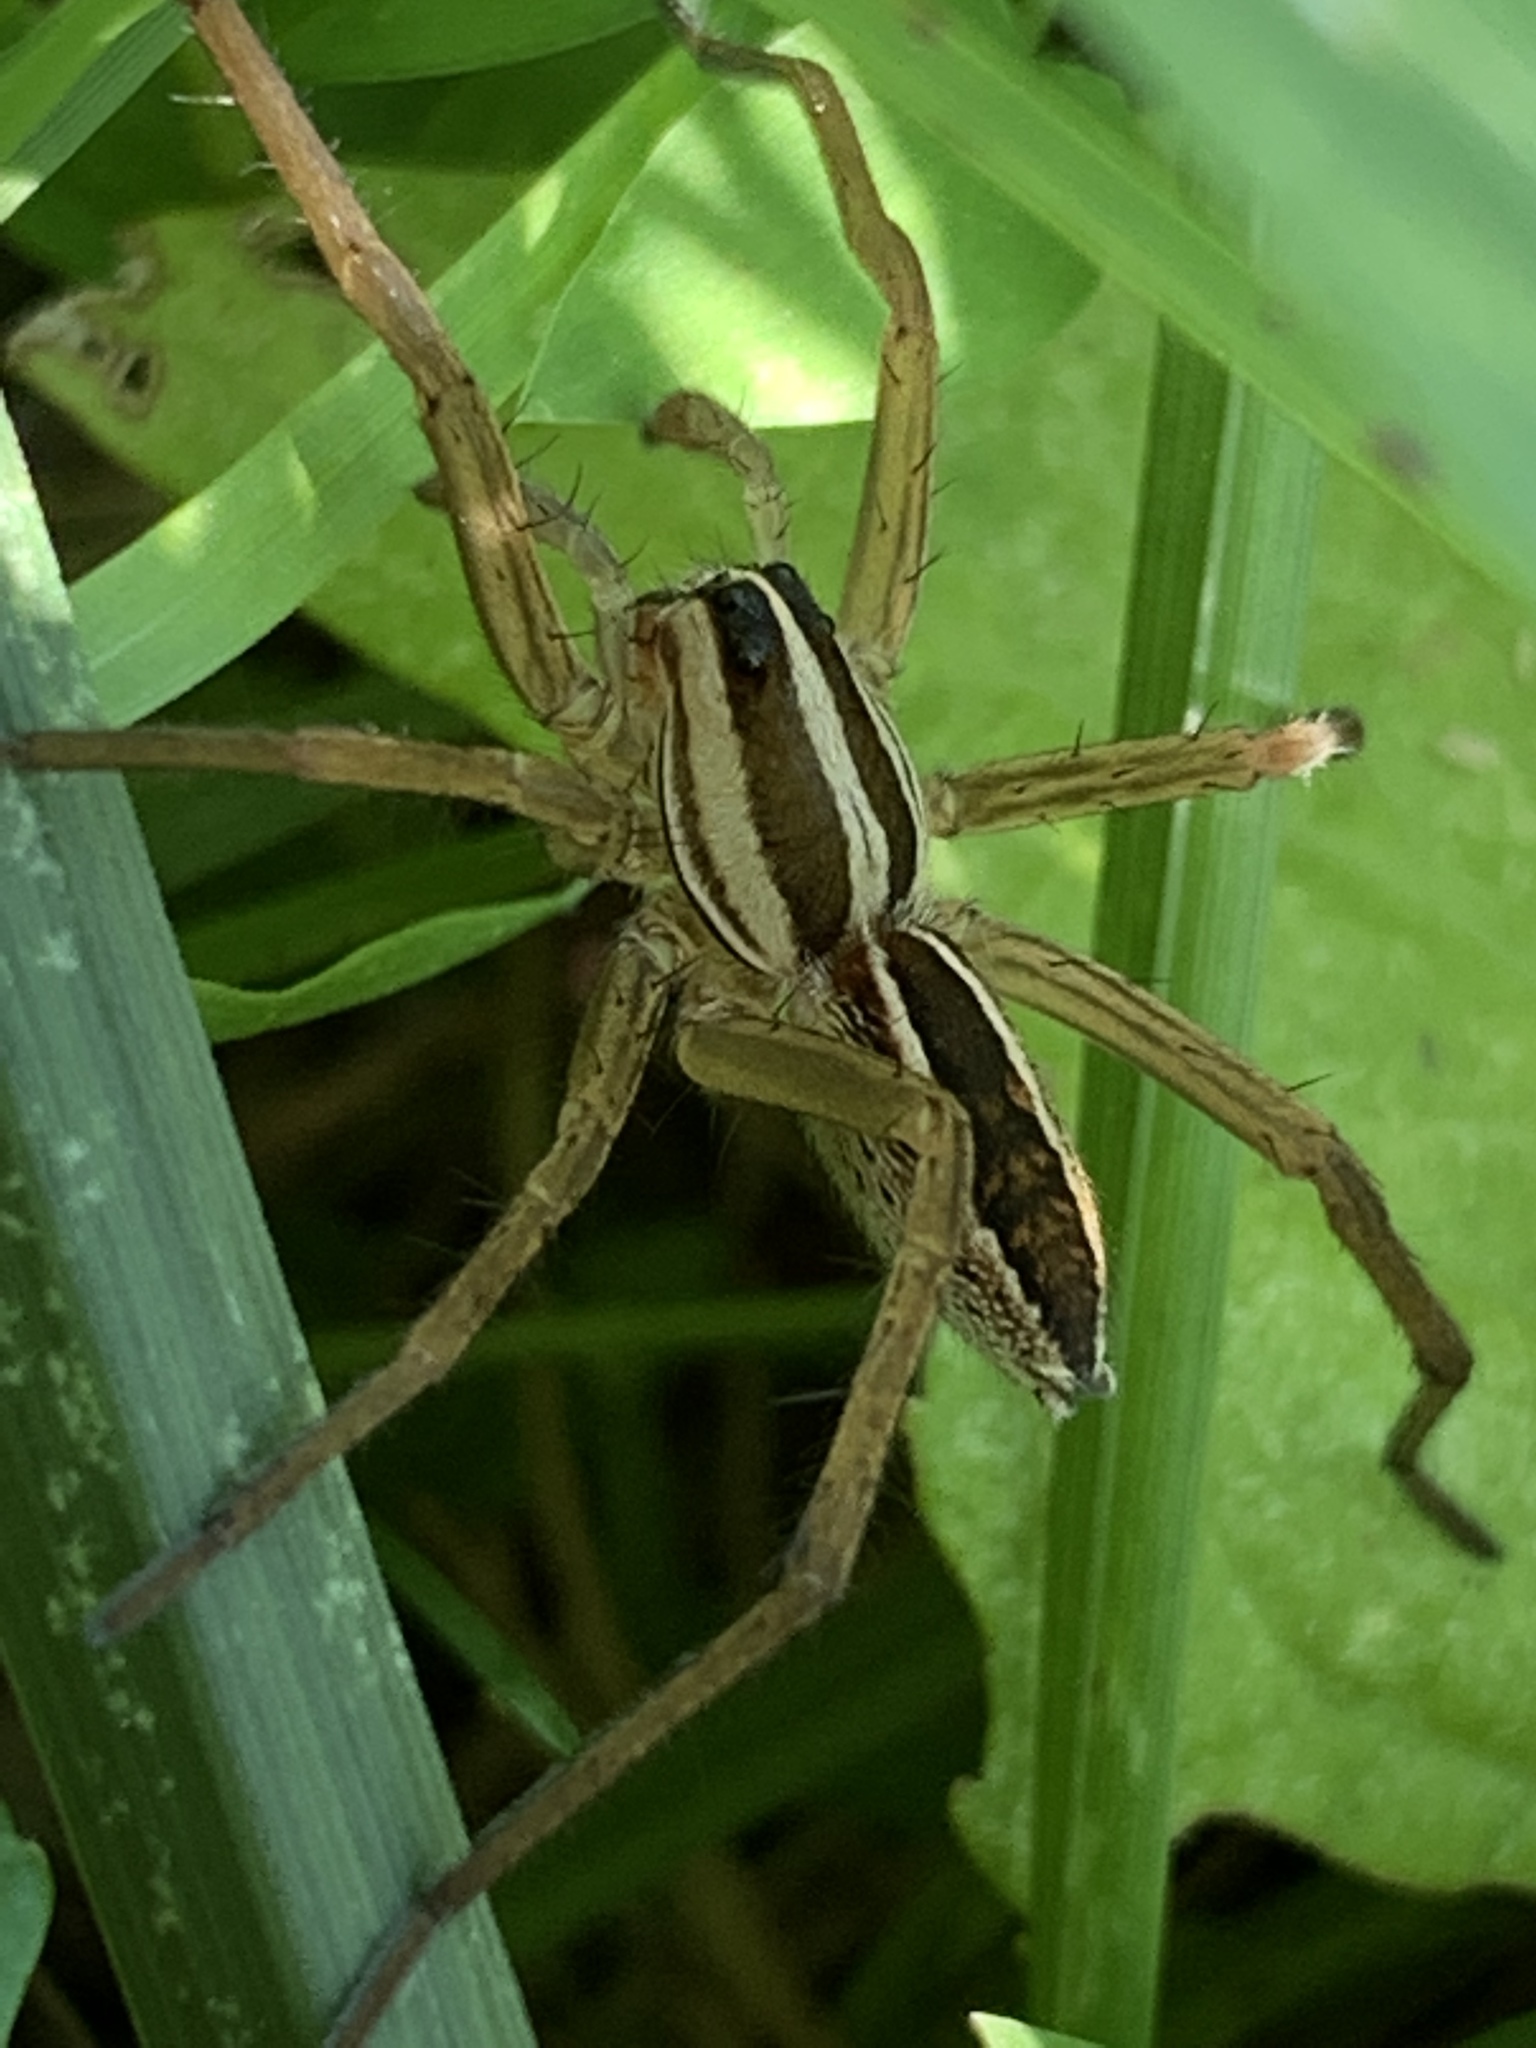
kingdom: Animalia
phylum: Arthropoda
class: Arachnida
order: Araneae
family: Lycosidae
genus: Rabidosa
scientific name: Rabidosa rabida
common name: Rabid wolf spider
